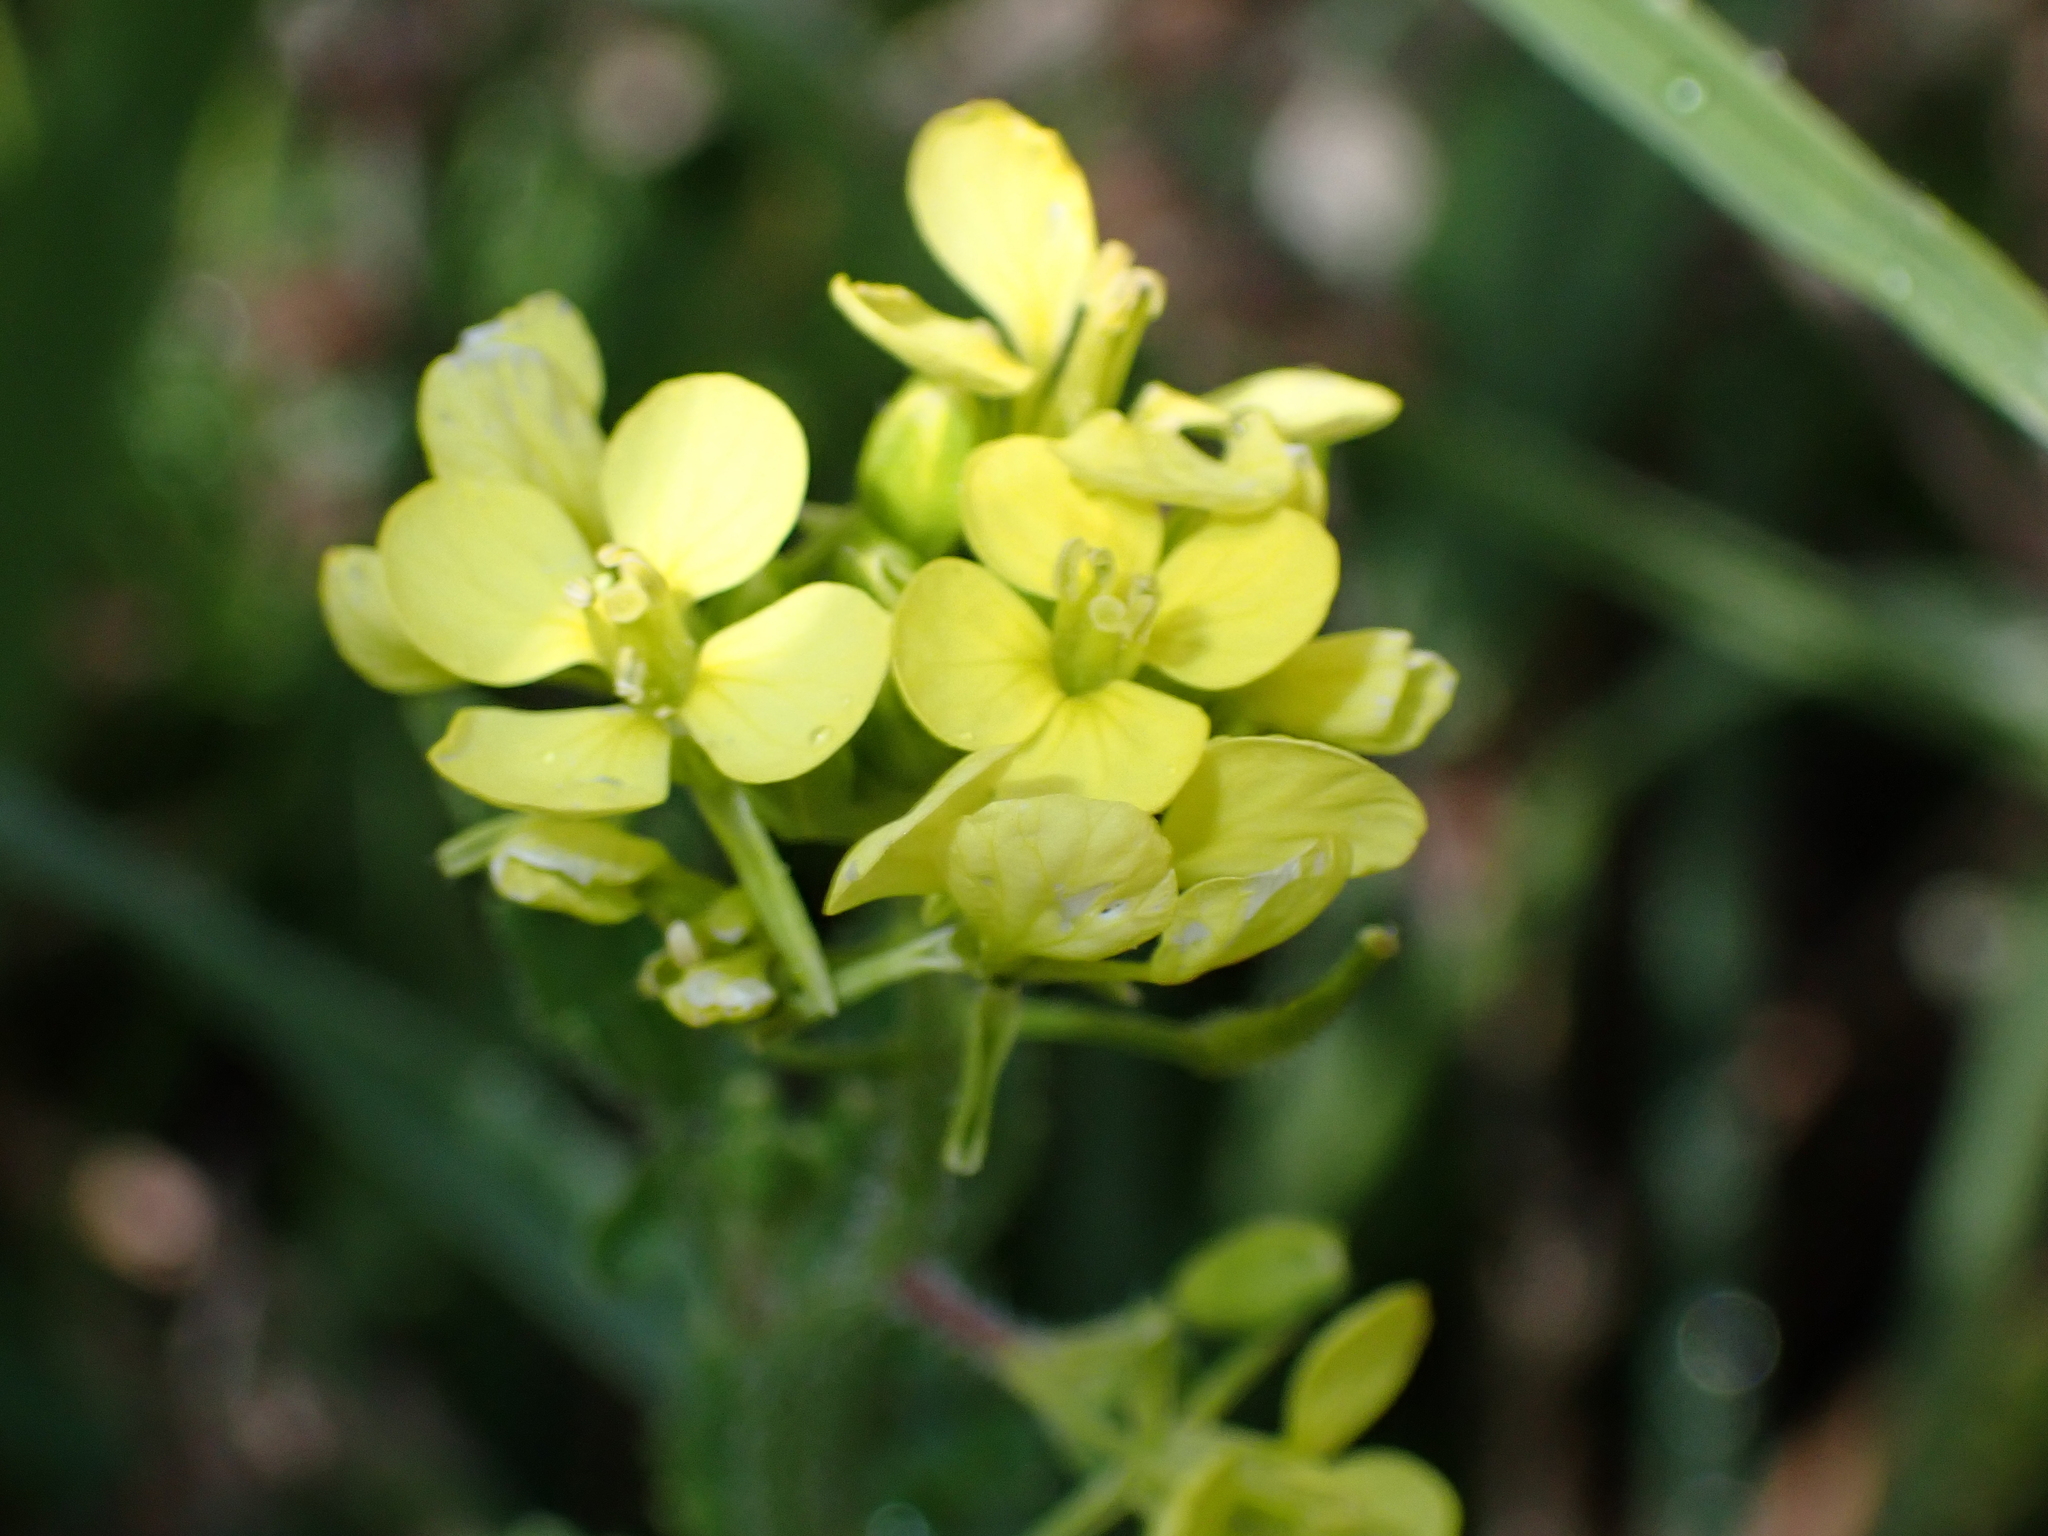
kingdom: Plantae
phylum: Tracheophyta
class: Magnoliopsida
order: Brassicales
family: Brassicaceae
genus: Sinapis
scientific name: Sinapis alba
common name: White mustard
